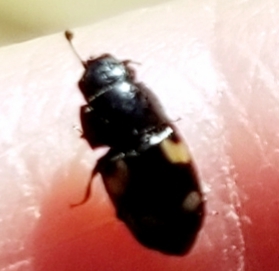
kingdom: Animalia
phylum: Arthropoda
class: Insecta
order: Coleoptera
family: Nitidulidae
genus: Glischrochilus
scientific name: Glischrochilus quadrisignatus
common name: Picnic beetle
